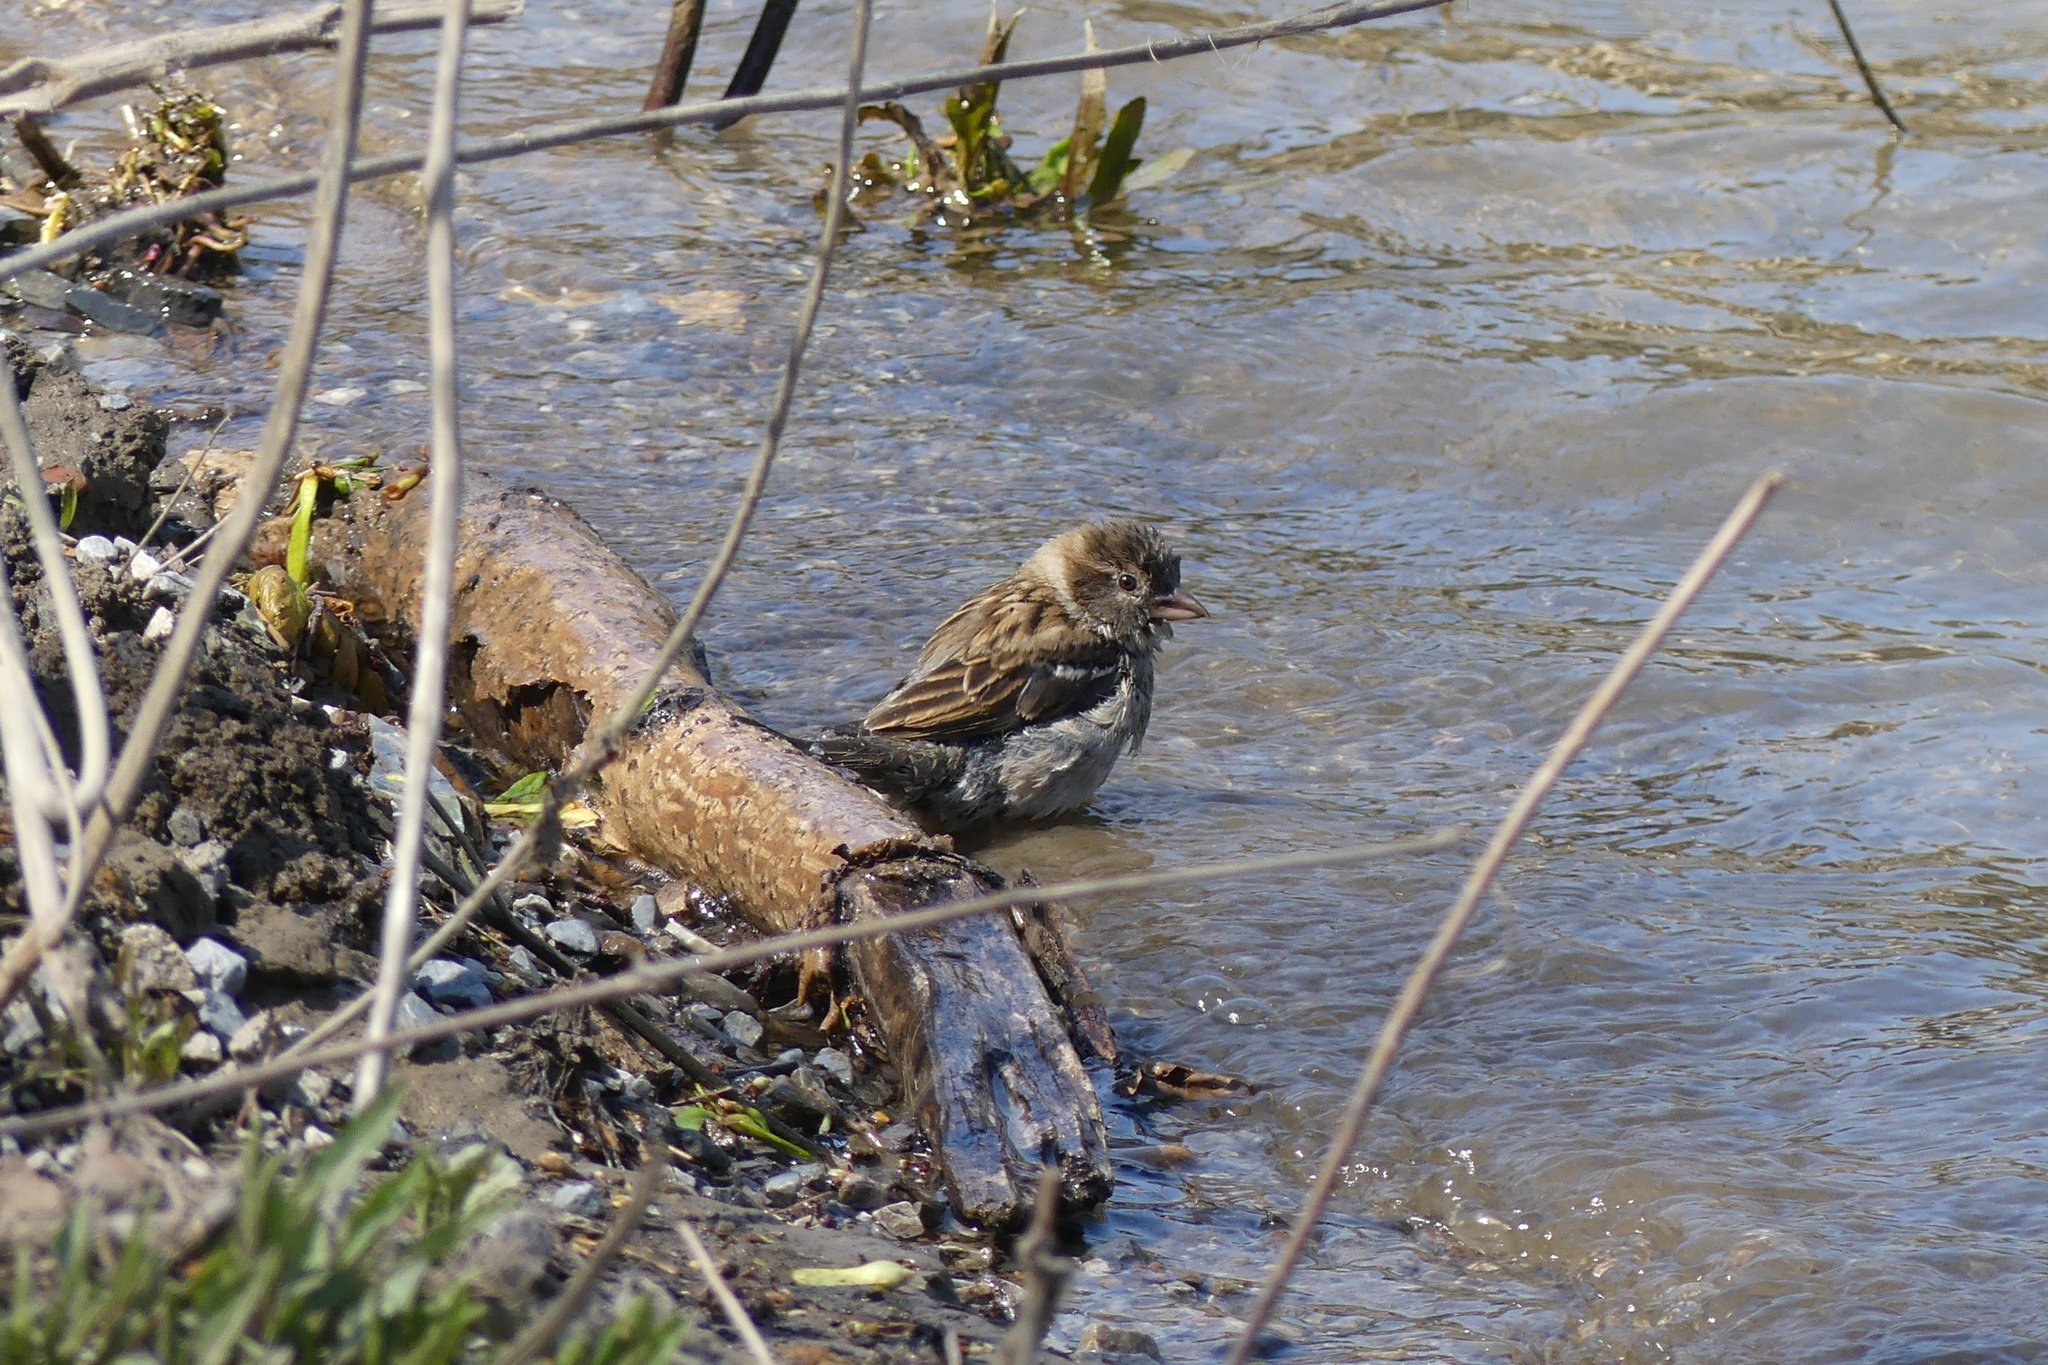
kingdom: Animalia
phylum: Chordata
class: Aves
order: Passeriformes
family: Passeridae
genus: Passer
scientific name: Passer domesticus
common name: House sparrow
